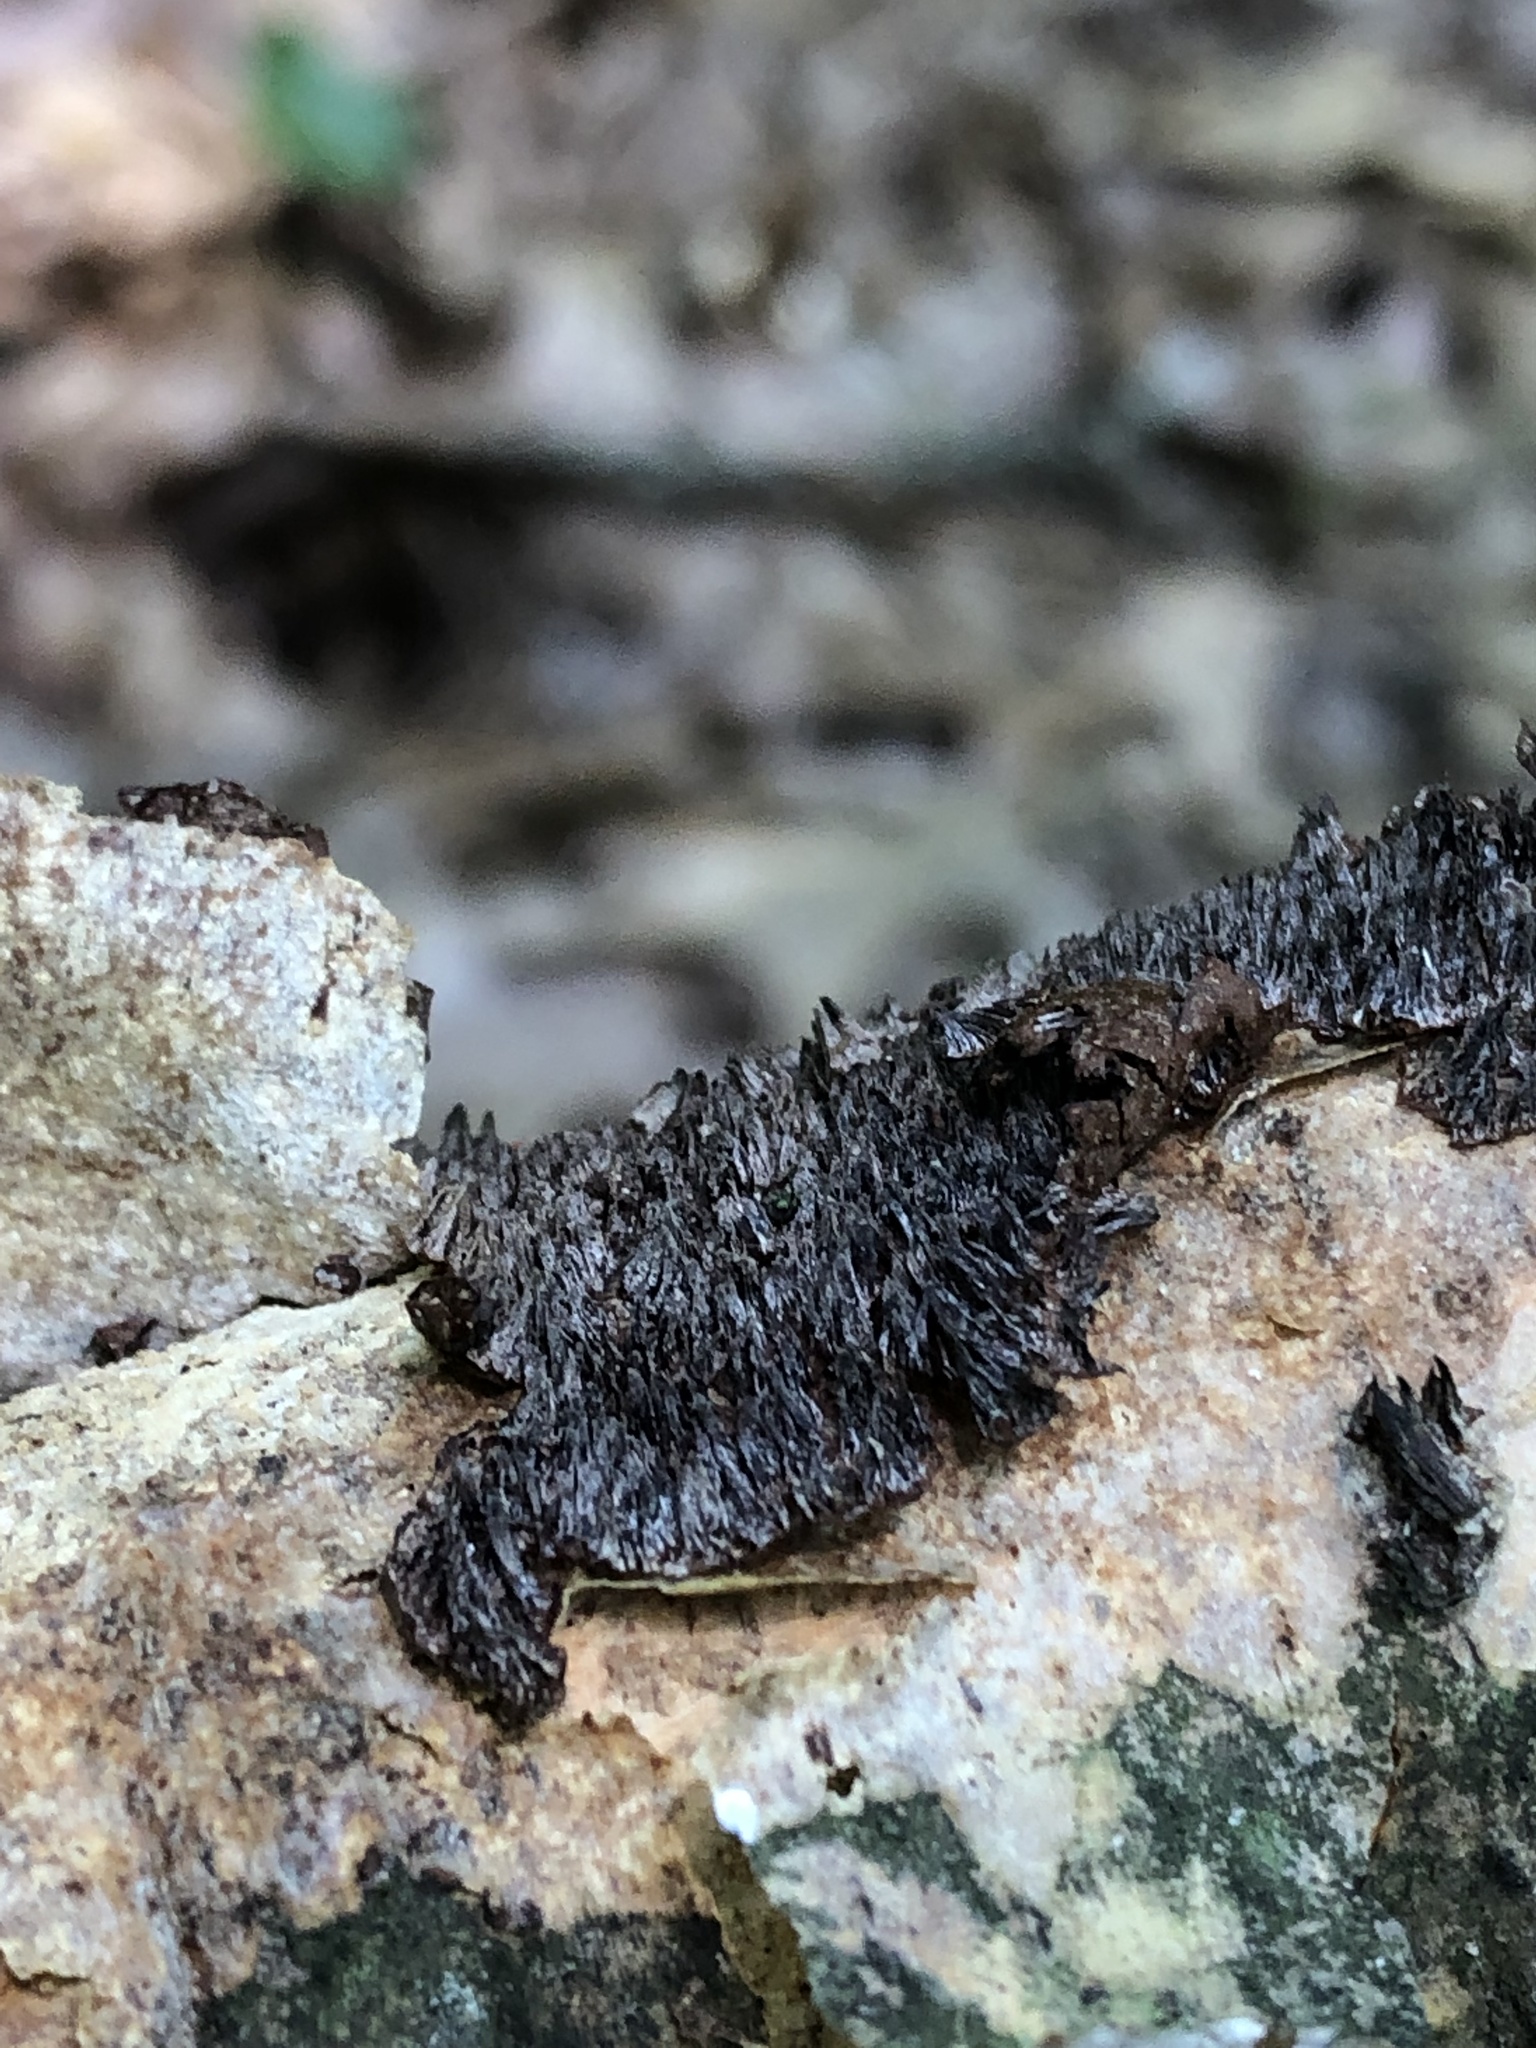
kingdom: Fungi
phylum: Basidiomycota
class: Agaricomycetes
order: Hymenochaetales
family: Hymenochaetaceae
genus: Hydnoporia
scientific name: Hydnoporia olivacea
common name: Brown-toothed crust fungus
